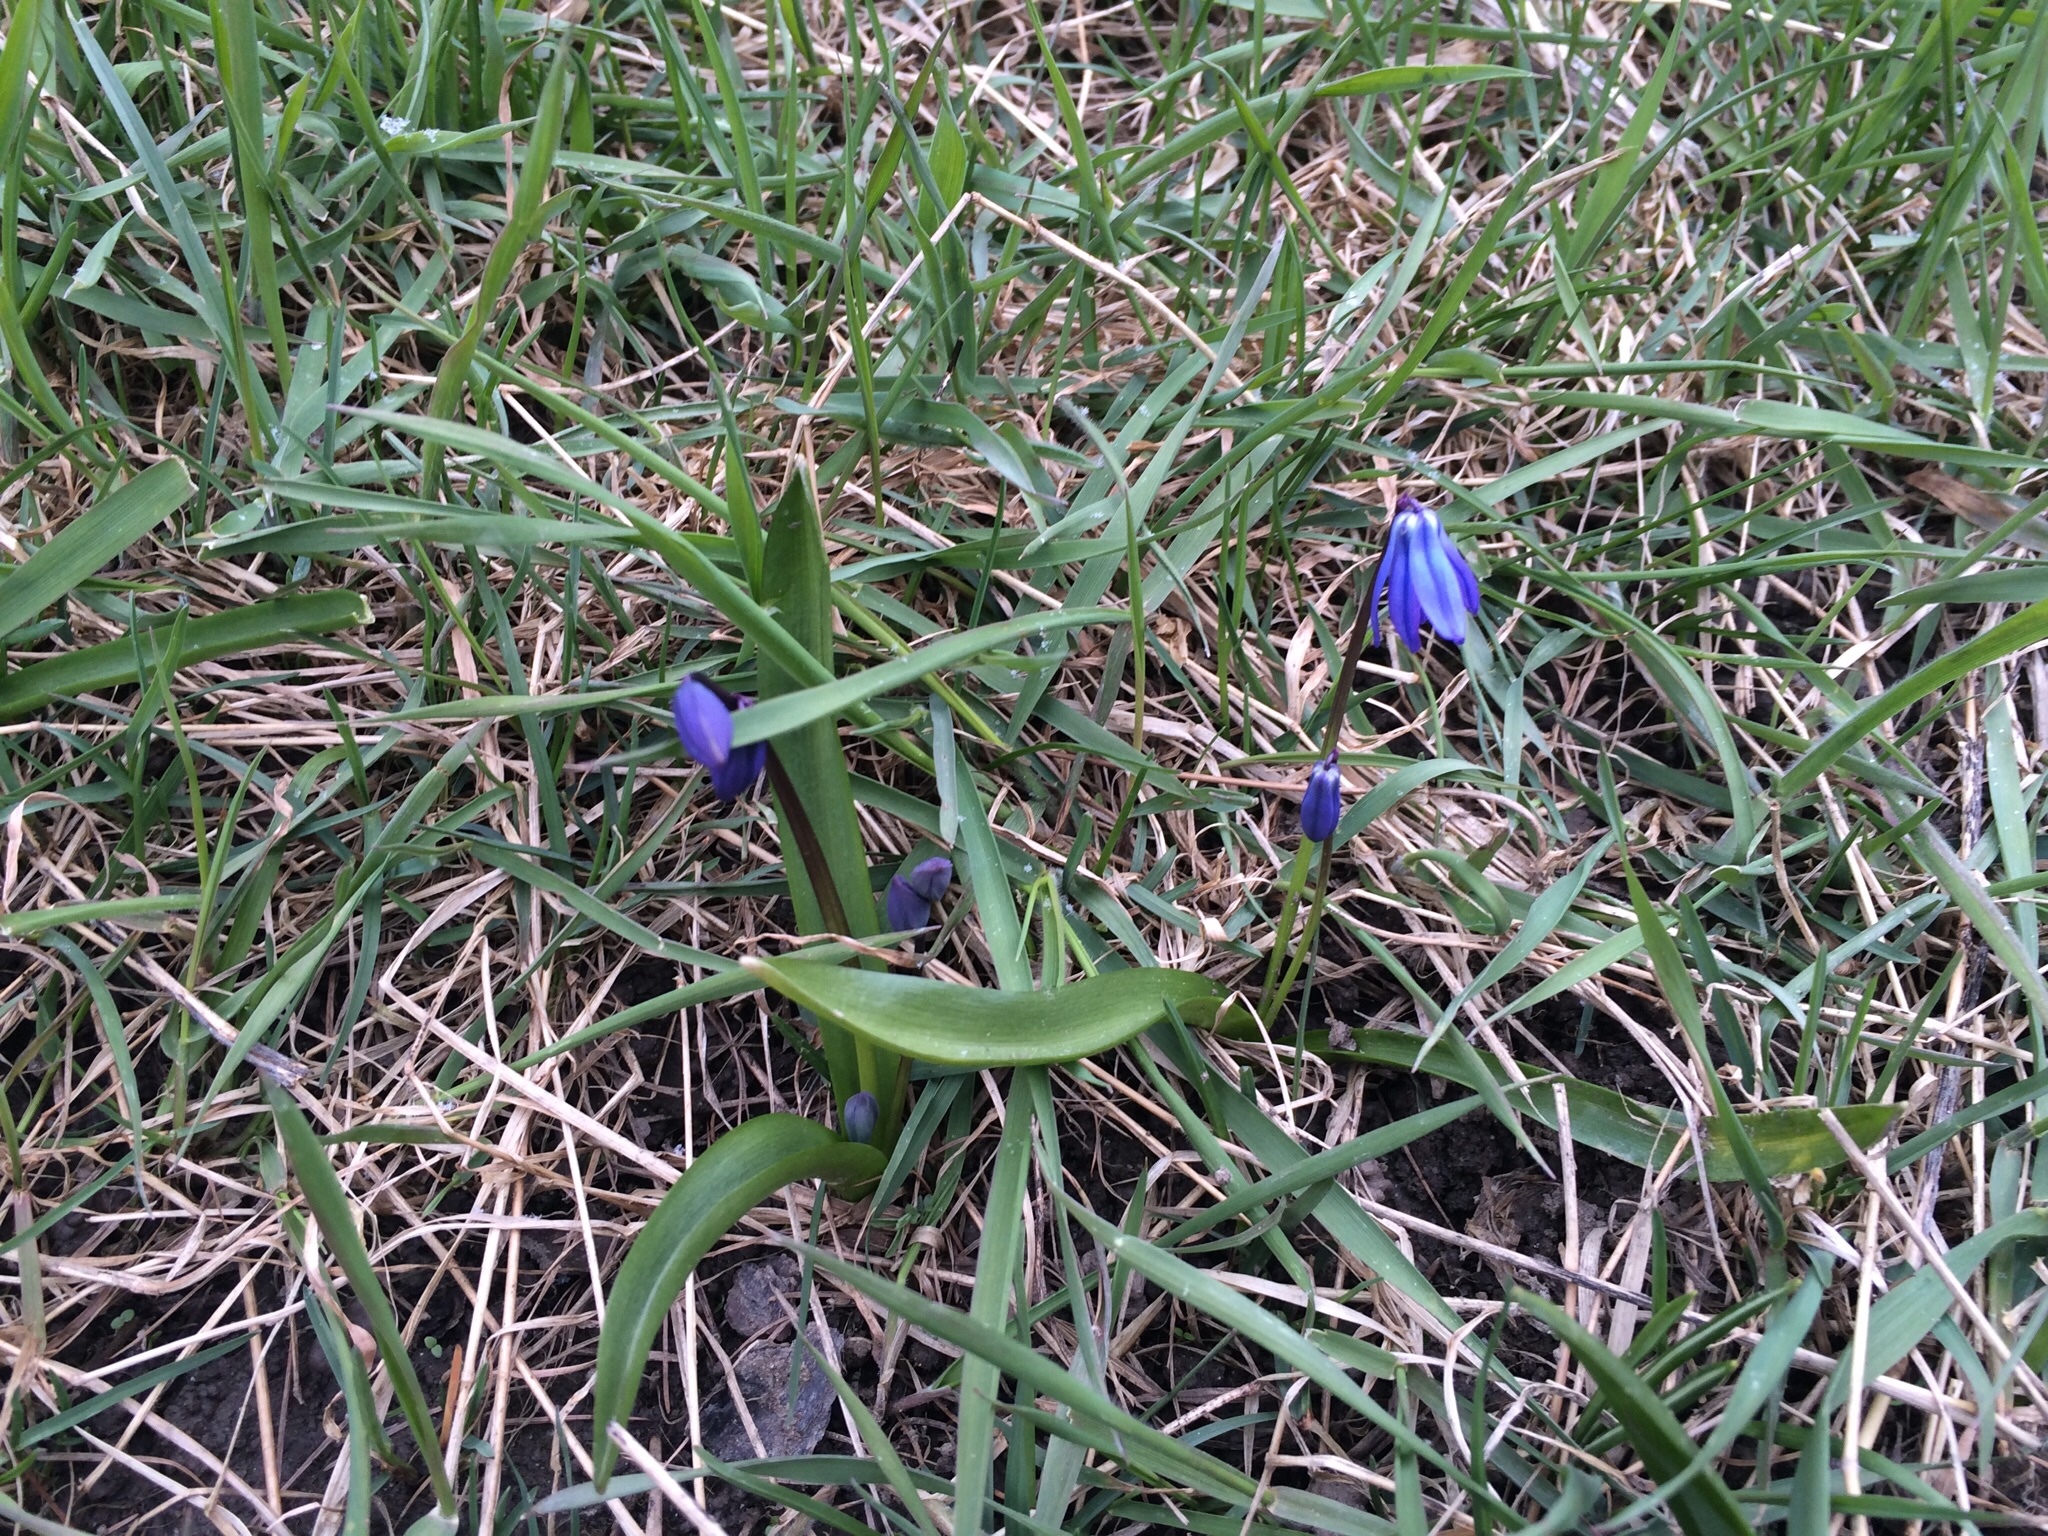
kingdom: Plantae
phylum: Tracheophyta
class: Liliopsida
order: Asparagales
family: Asparagaceae
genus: Scilla
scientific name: Scilla siberica
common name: Siberian squill
